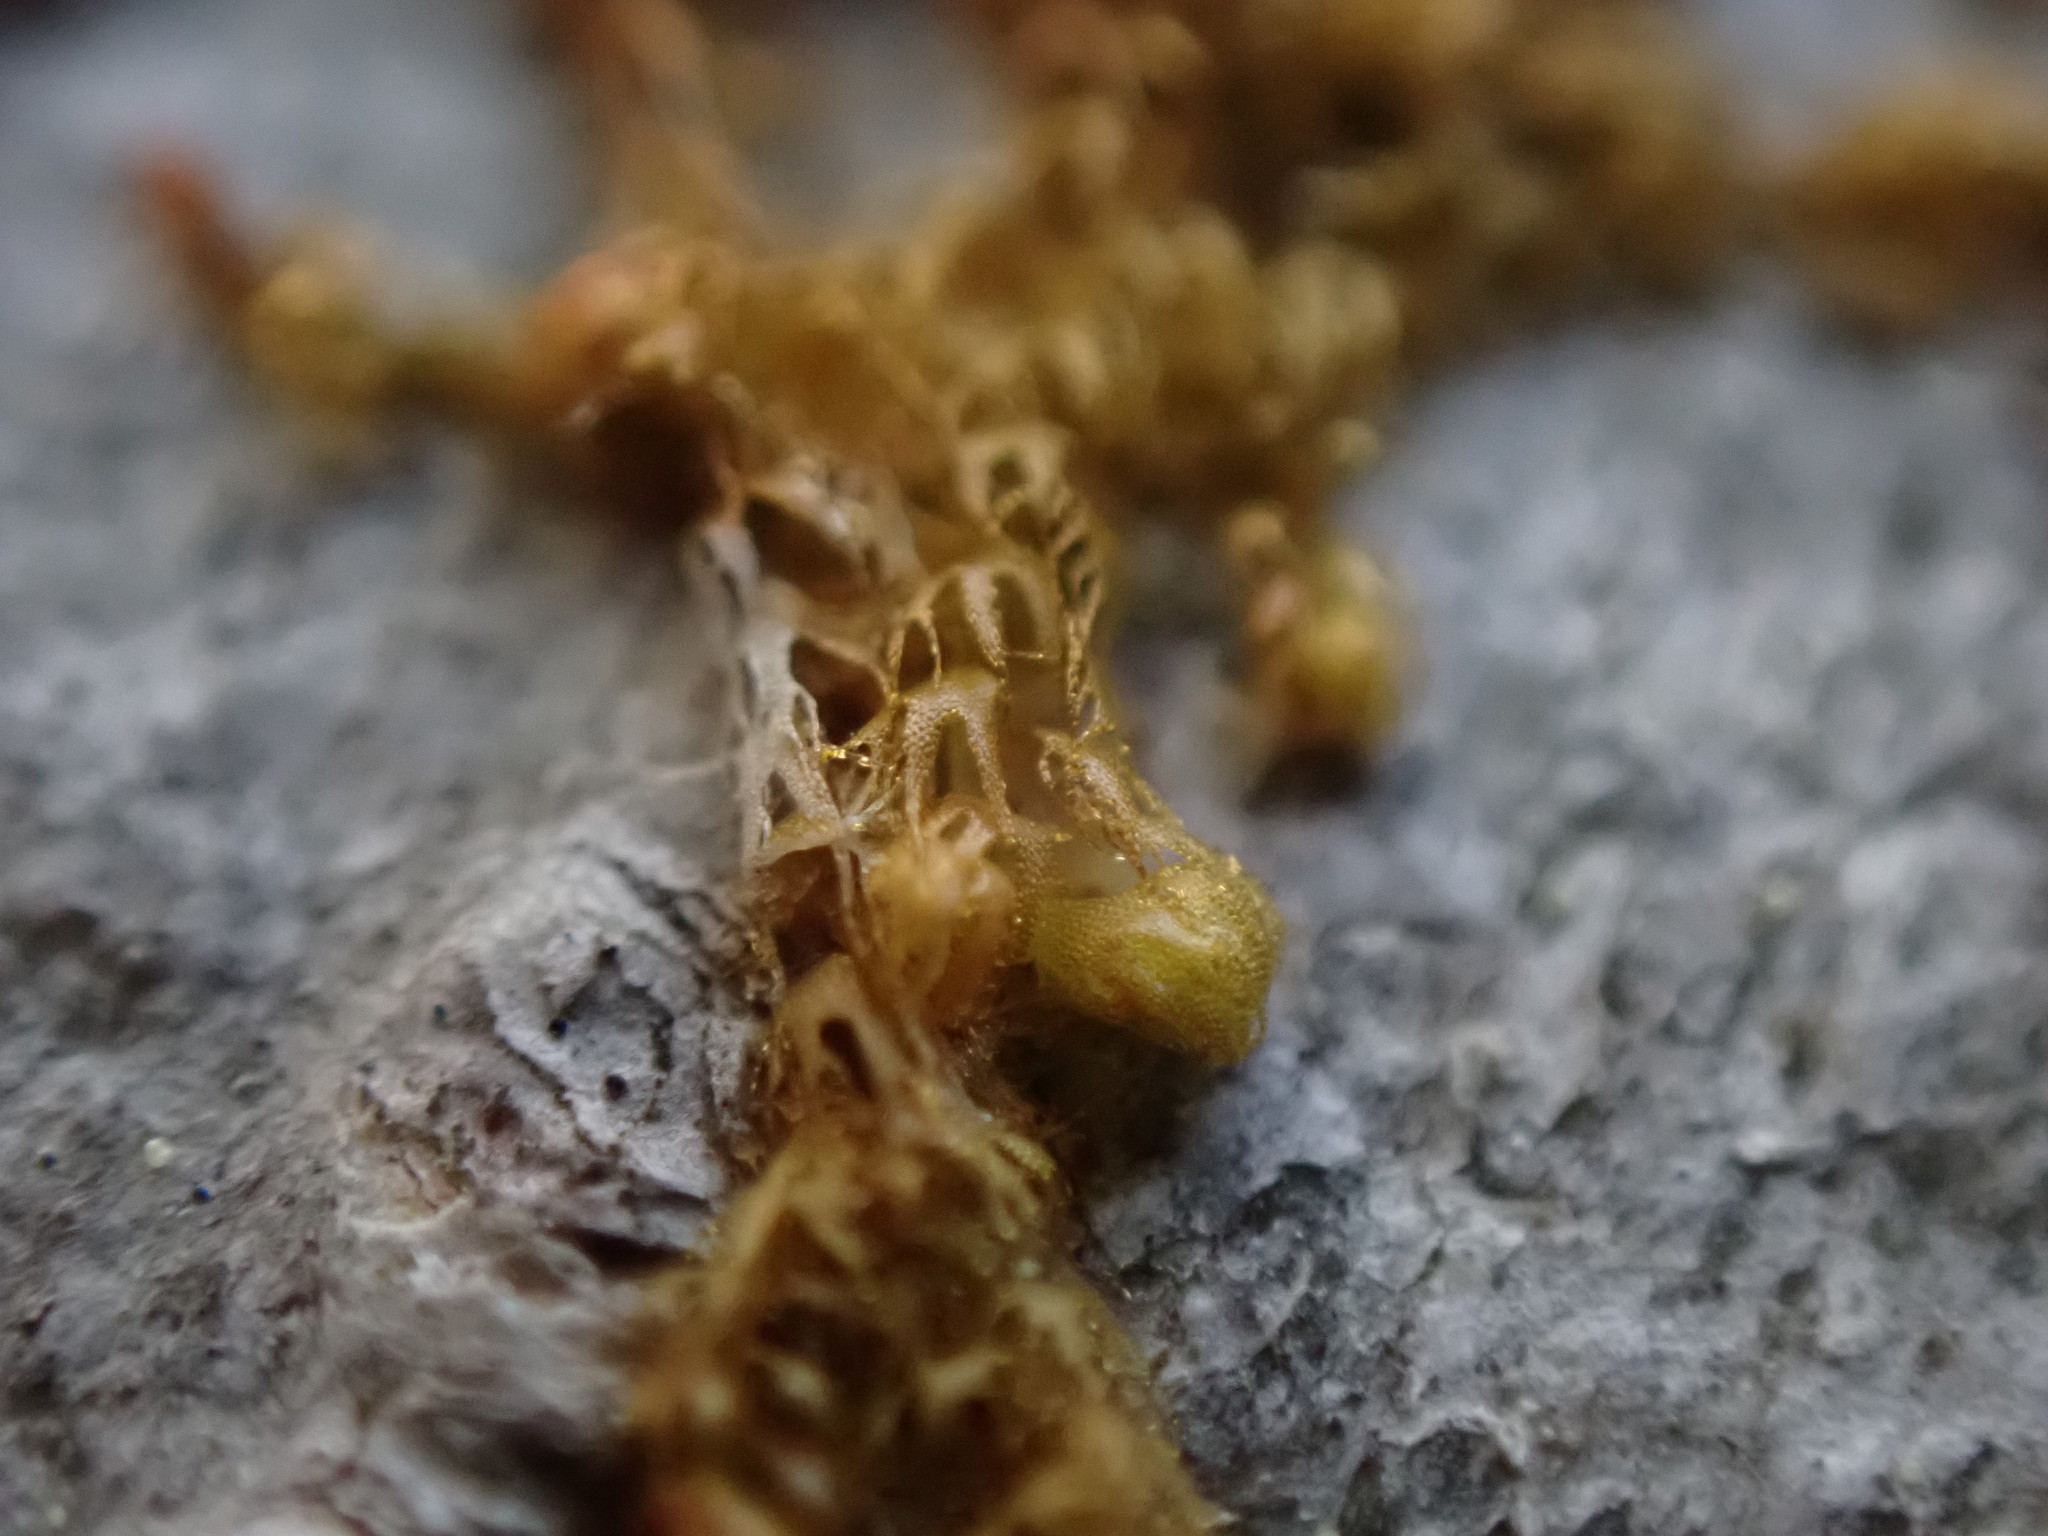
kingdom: Plantae
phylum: Marchantiophyta
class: Jungermanniopsida
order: Ptilidiales
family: Ptilidiaceae
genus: Ptilidium
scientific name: Ptilidium californicum
